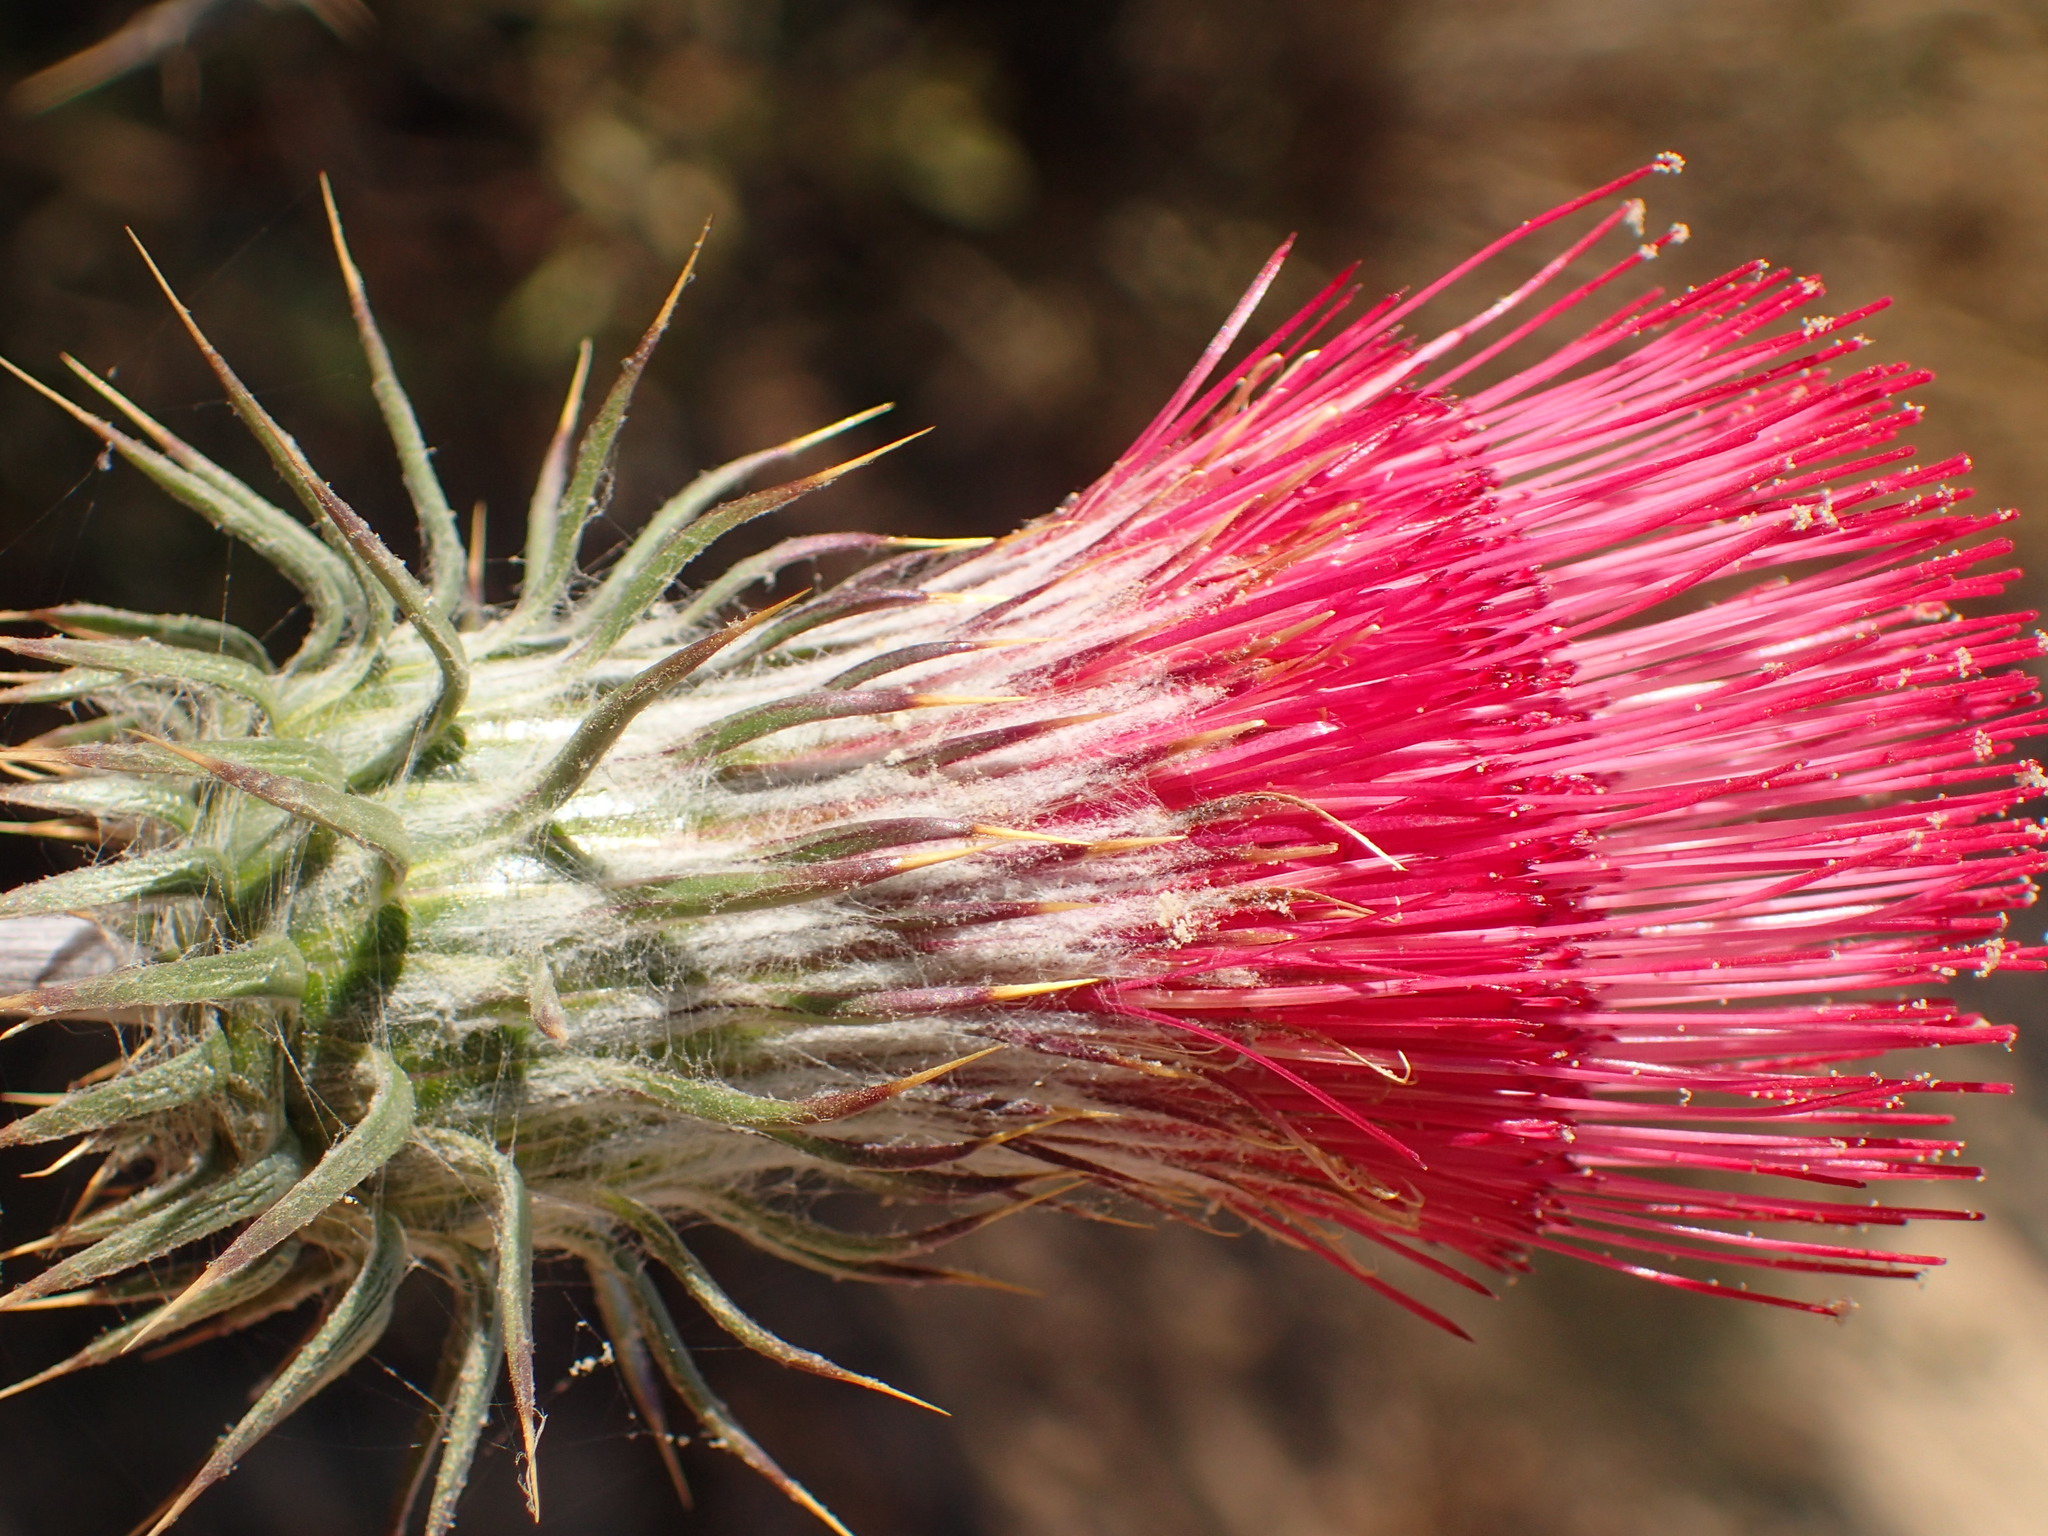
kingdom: Plantae
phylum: Tracheophyta
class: Magnoliopsida
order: Asterales
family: Asteraceae
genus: Cirsium
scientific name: Cirsium occidentale
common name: Western thistle
